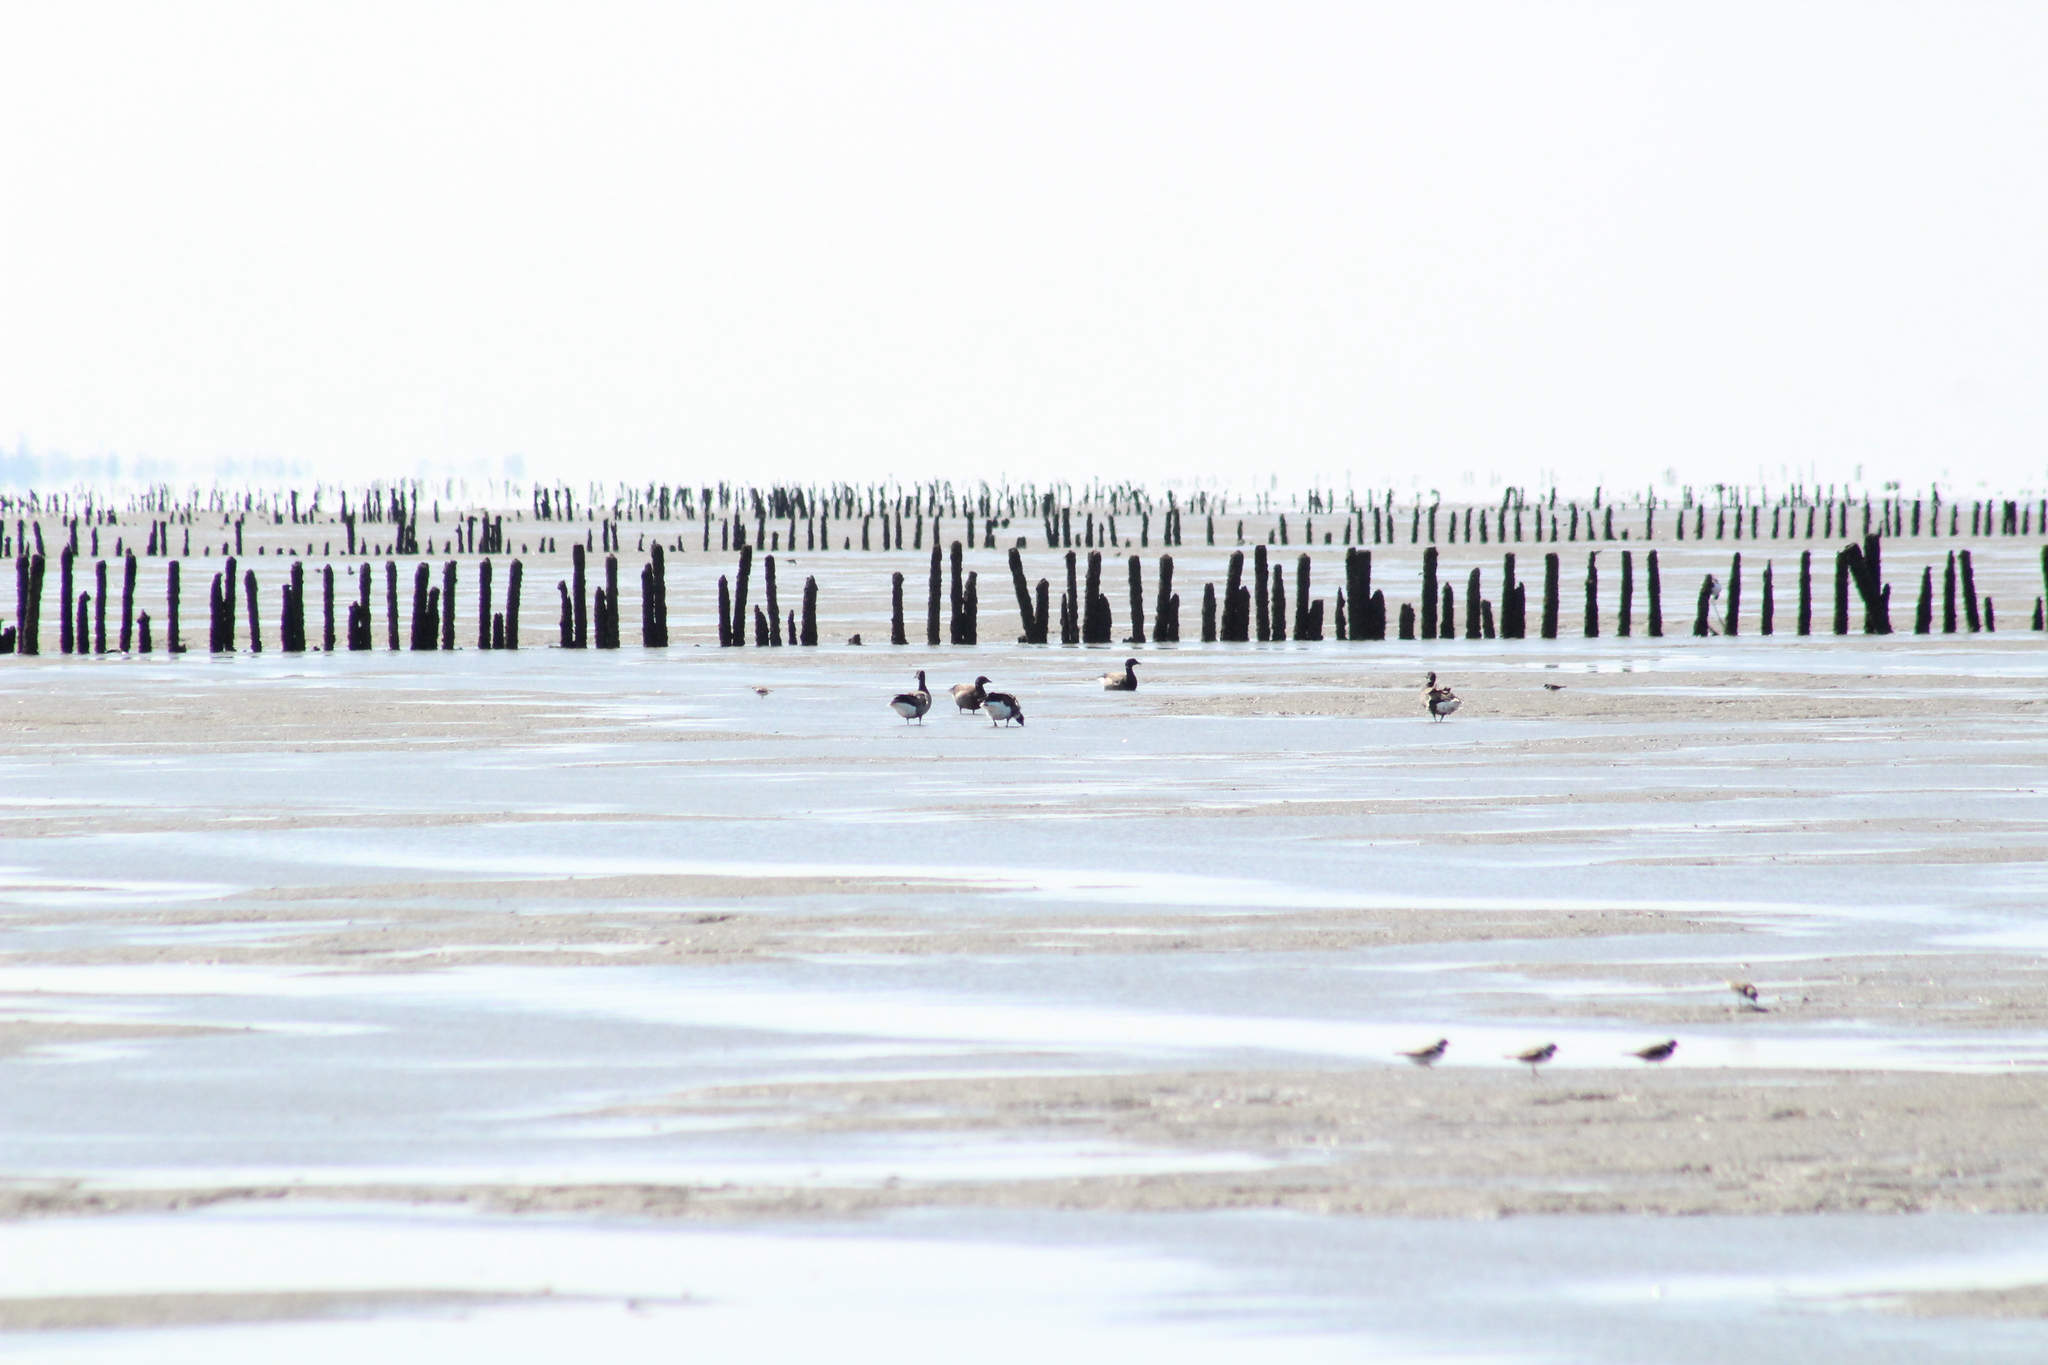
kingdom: Animalia
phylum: Chordata
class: Aves
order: Anseriformes
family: Anatidae
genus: Branta
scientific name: Branta bernicla
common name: Brant goose
